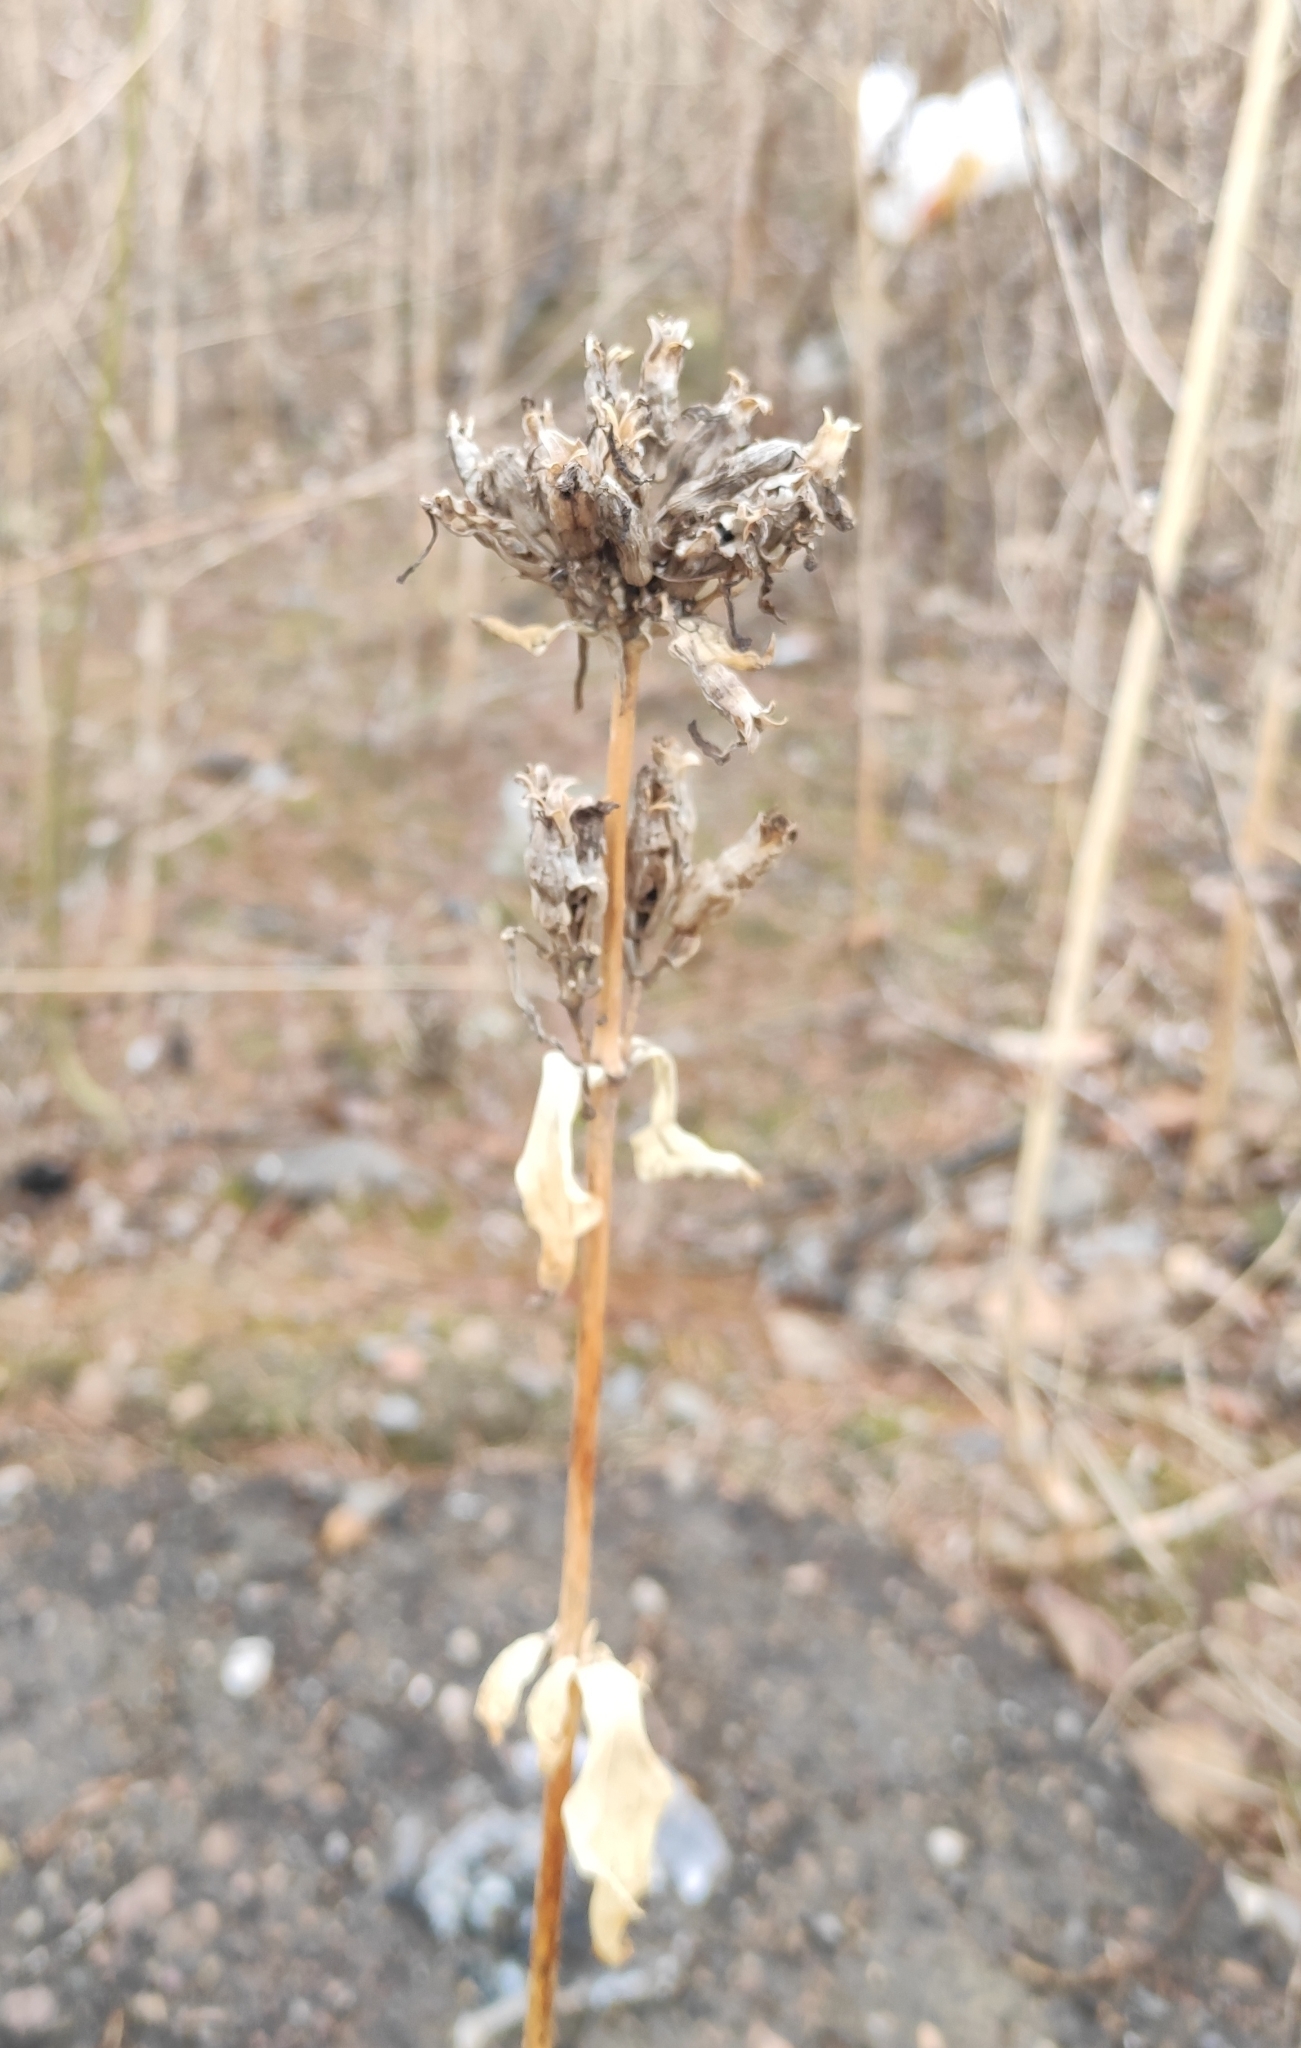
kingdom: Plantae
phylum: Tracheophyta
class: Magnoliopsida
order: Caryophyllales
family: Caryophyllaceae
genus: Saponaria
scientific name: Saponaria officinalis
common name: Soapwort
